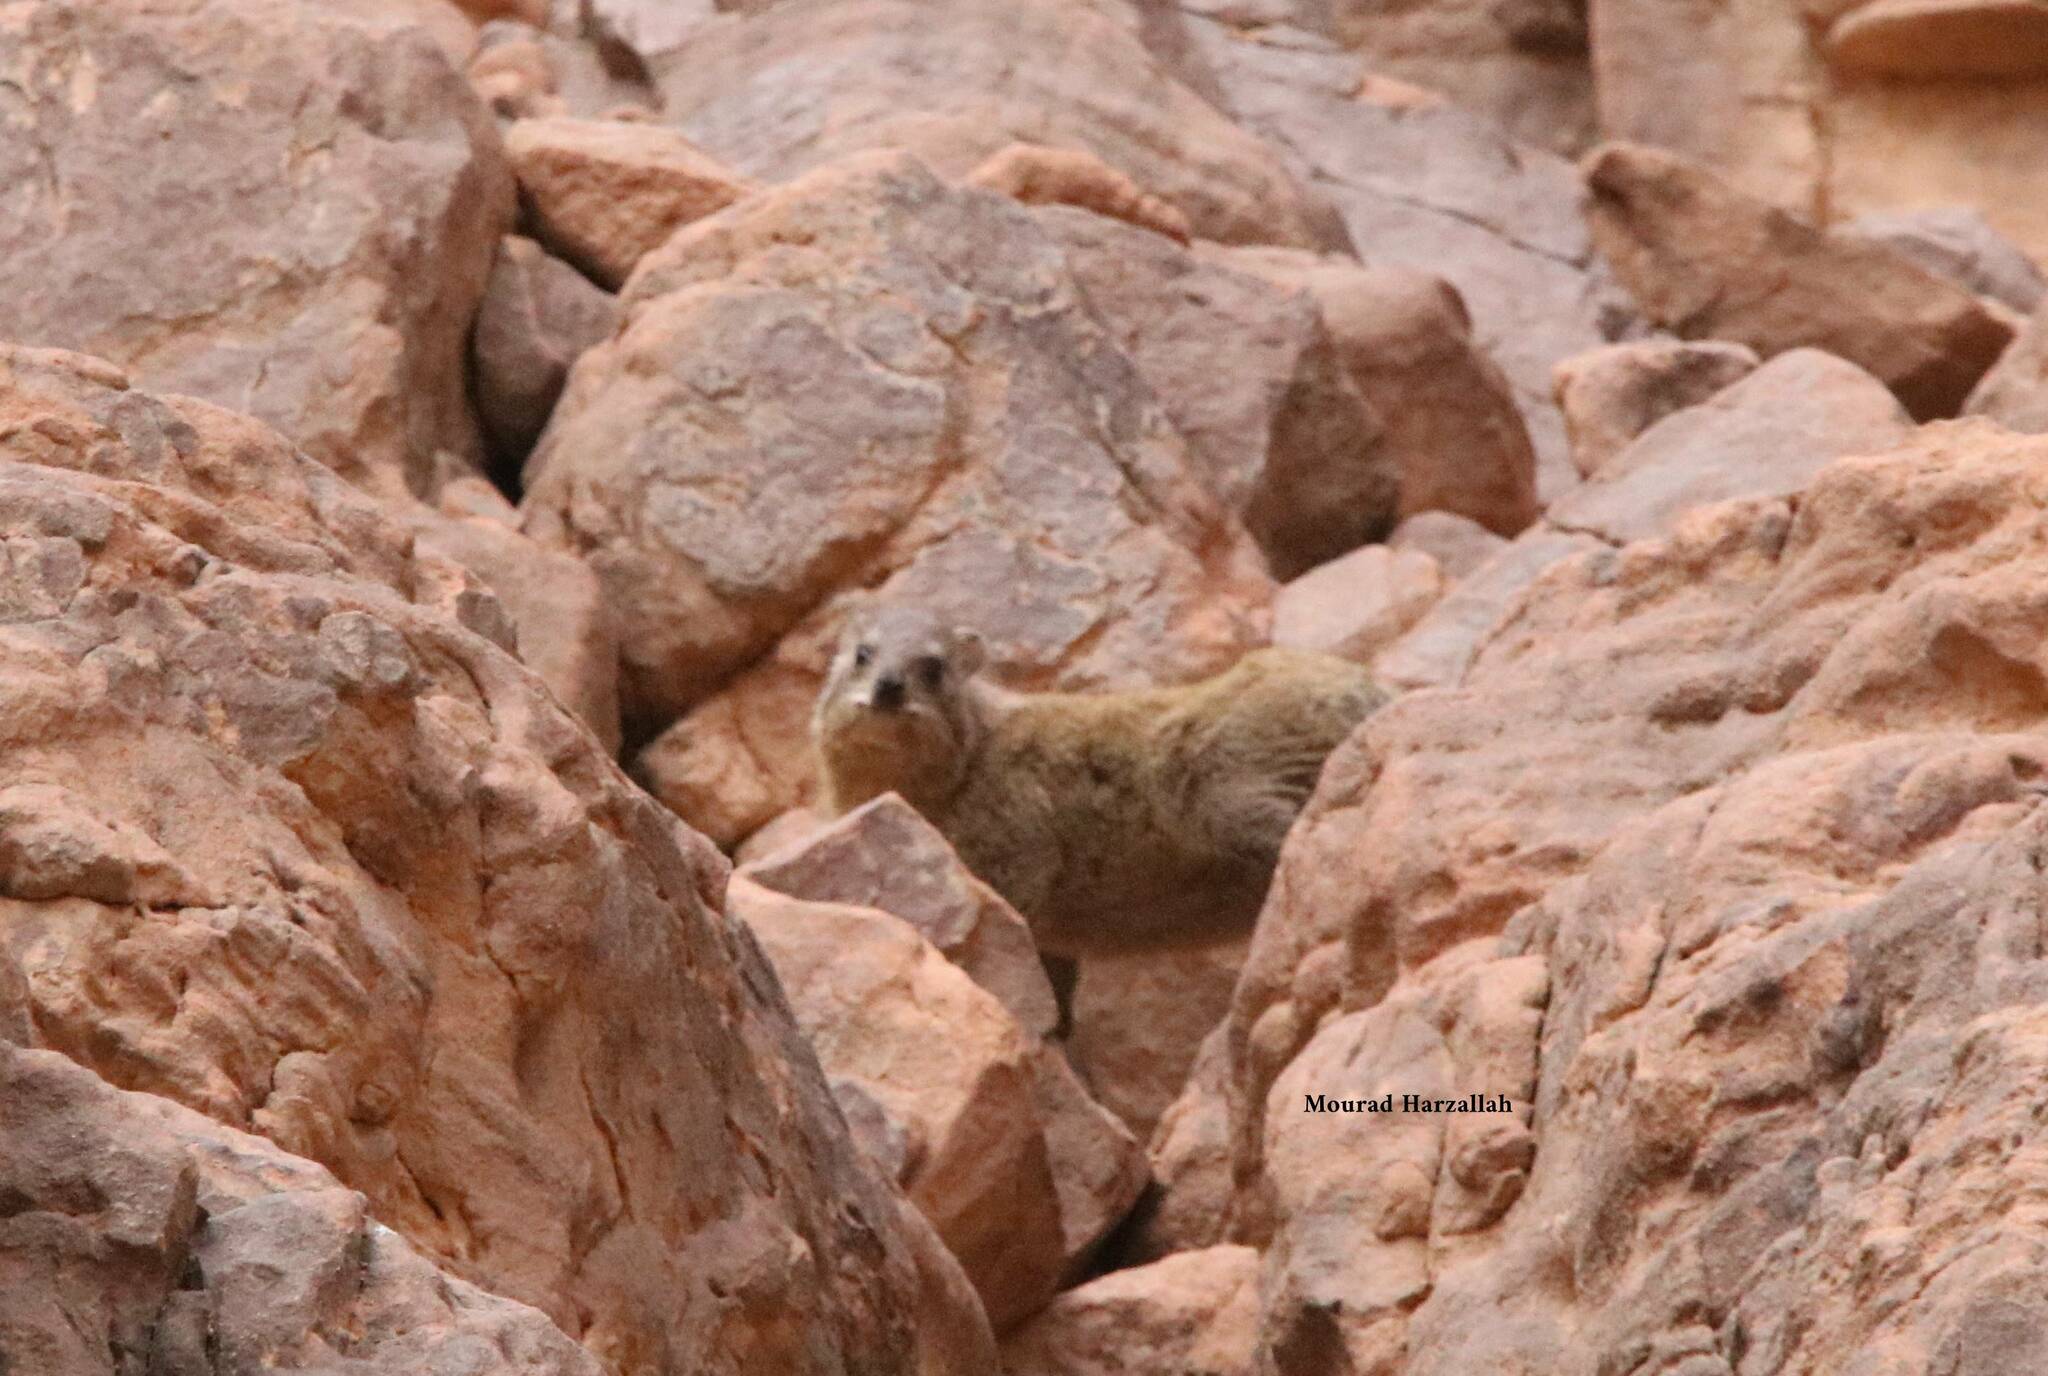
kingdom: Animalia
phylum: Chordata
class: Mammalia
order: Hyracoidea
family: Procaviidae
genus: Procavia
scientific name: Procavia capensis
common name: Rock hyrax
